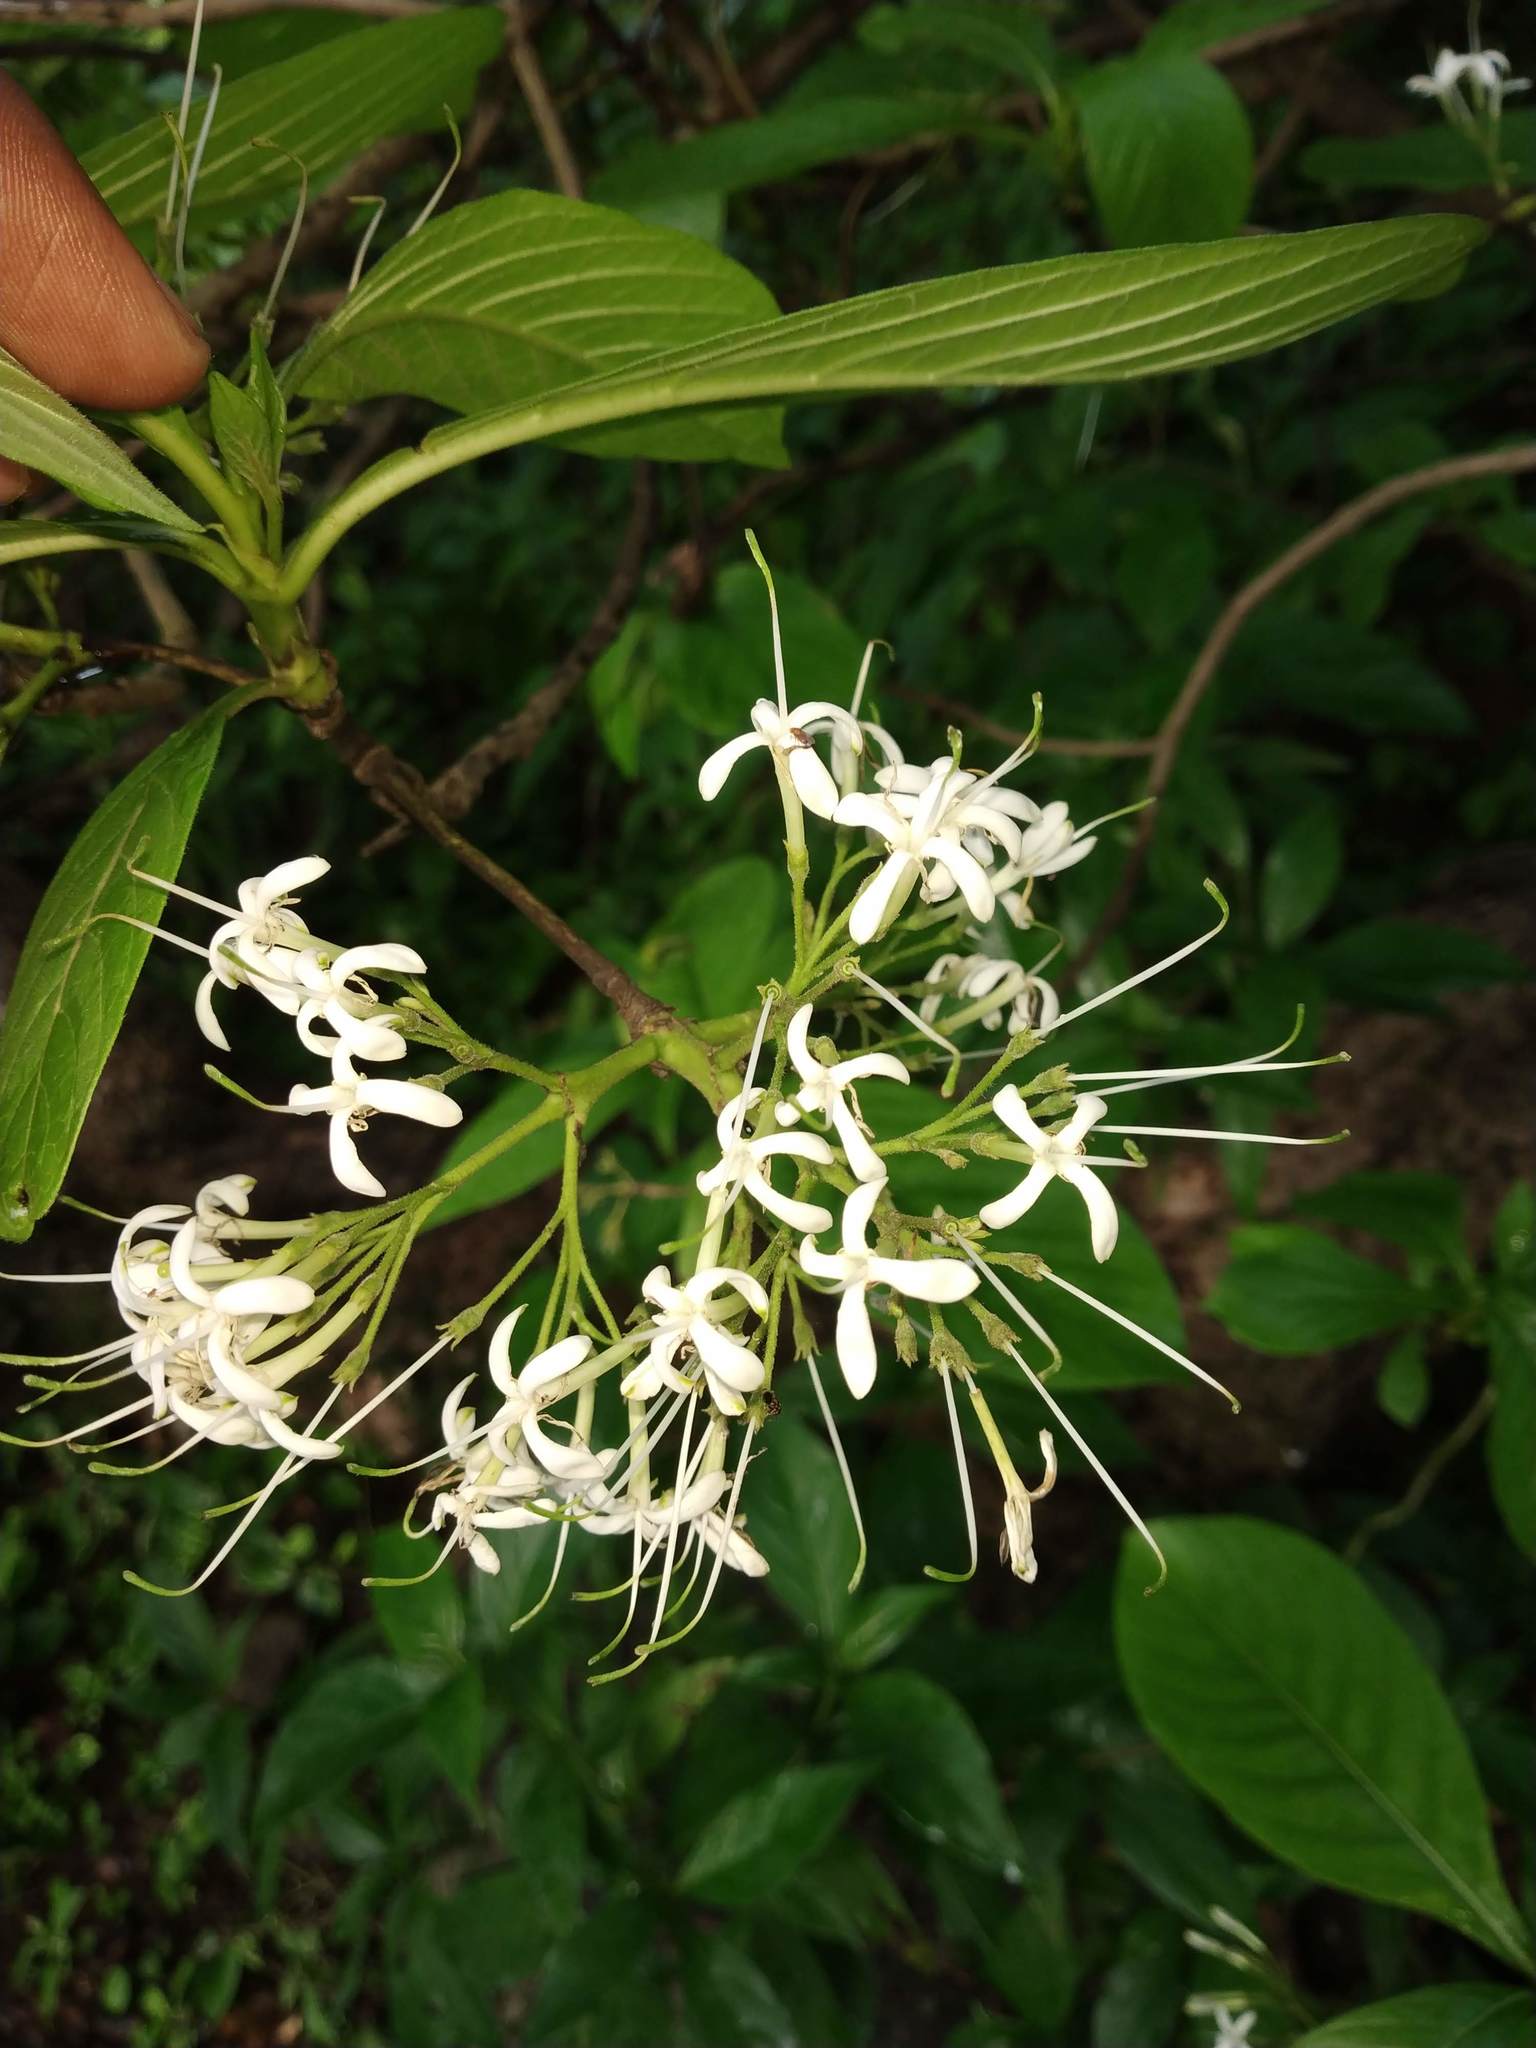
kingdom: Plantae
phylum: Tracheophyta
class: Magnoliopsida
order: Gentianales
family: Rubiaceae
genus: Pavetta
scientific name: Pavetta indica
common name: Indian pavetta
